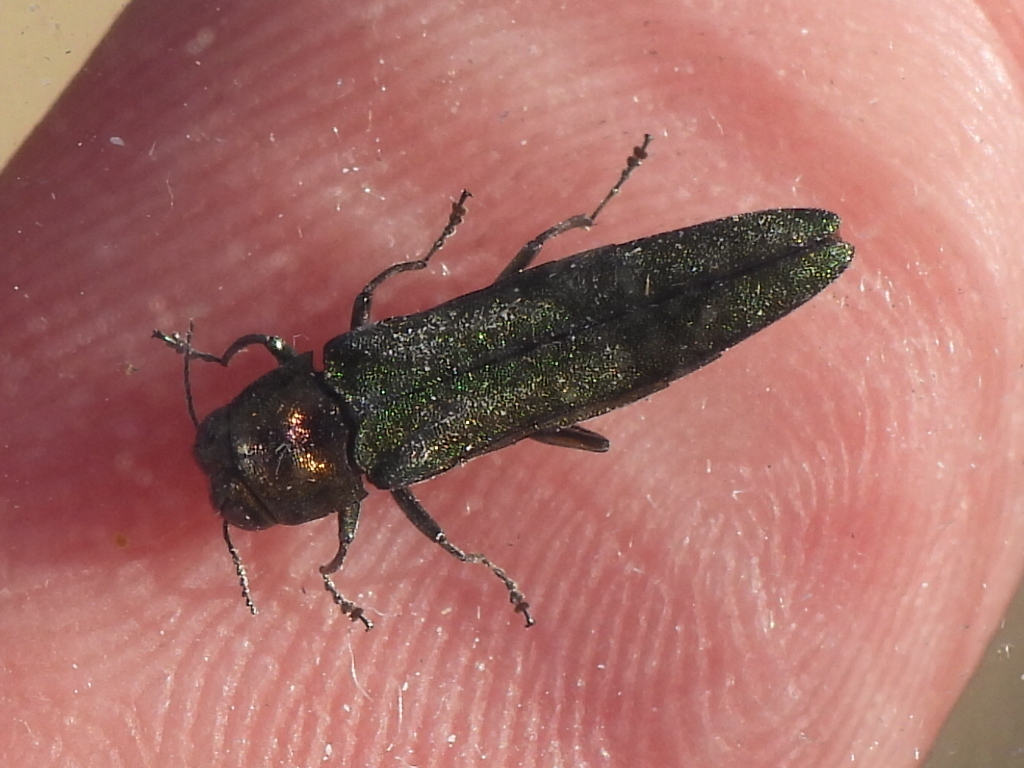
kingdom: Animalia
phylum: Arthropoda
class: Insecta
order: Coleoptera
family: Buprestidae
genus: Agrilus
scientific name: Agrilus planipennis
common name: Emerald ash borer
